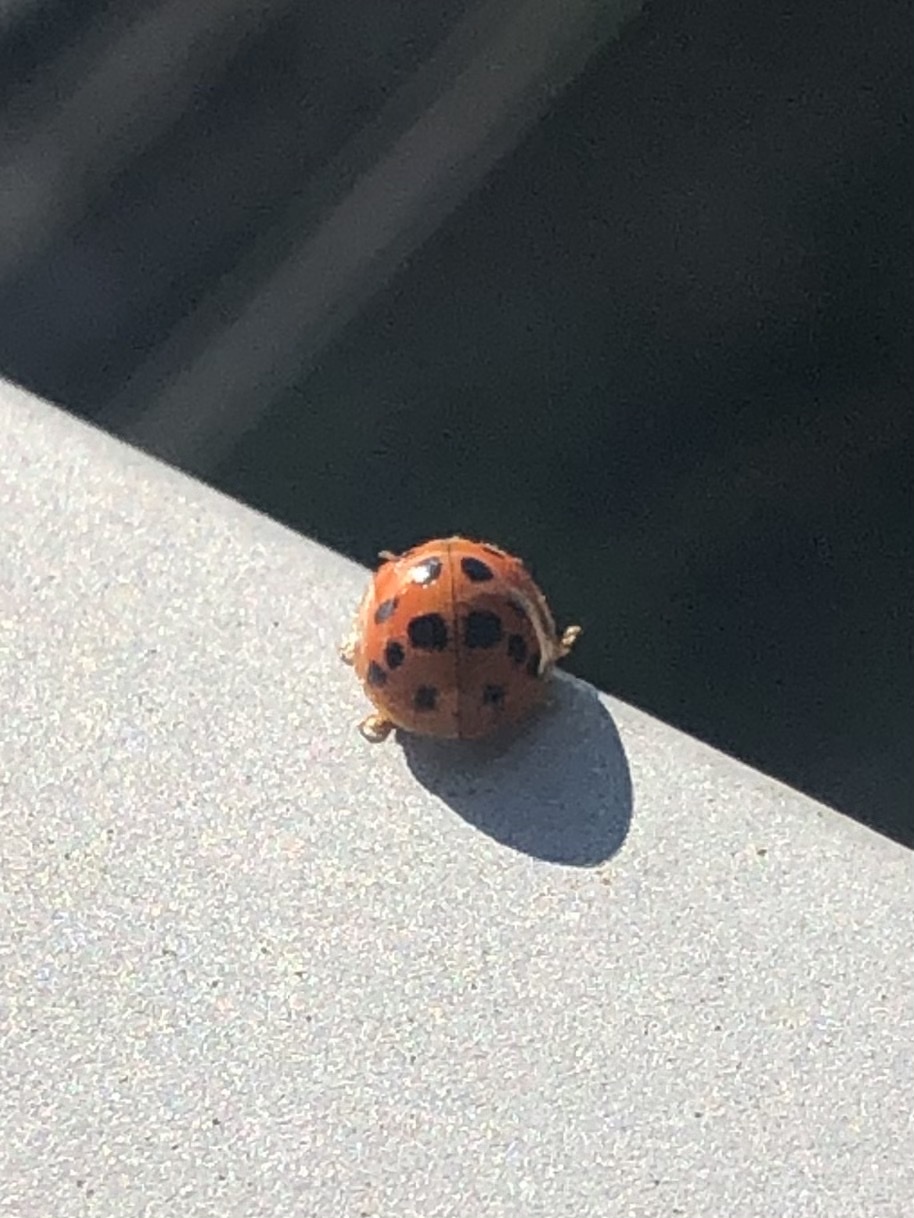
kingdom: Animalia
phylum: Arthropoda
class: Insecta
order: Coleoptera
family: Coccinellidae
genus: Harmonia
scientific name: Harmonia axyridis
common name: Harlequin ladybird
